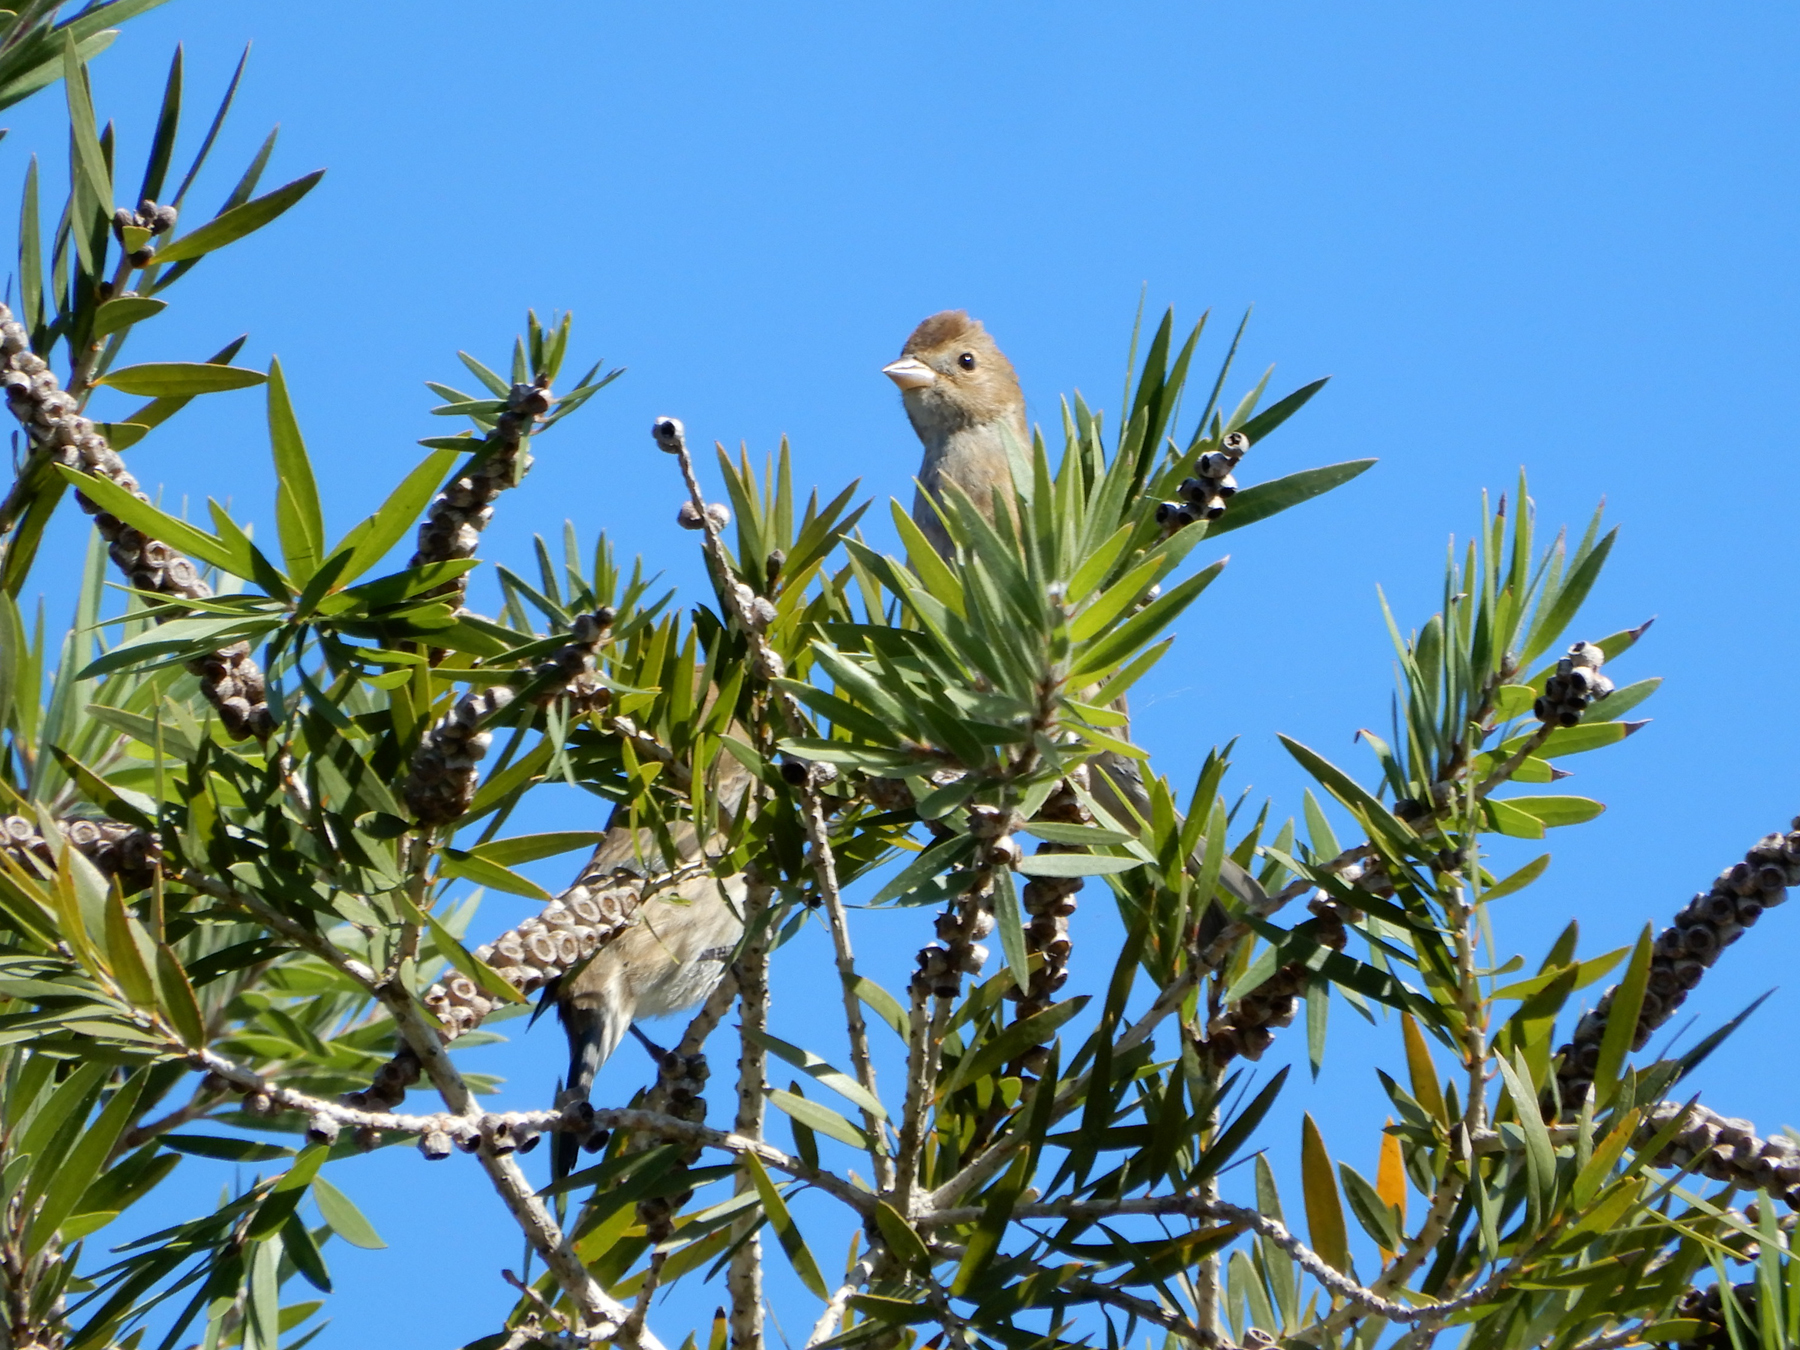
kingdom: Animalia
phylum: Chordata
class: Aves
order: Passeriformes
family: Cardinalidae
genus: Passerina
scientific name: Passerina cyanea
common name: Indigo bunting
